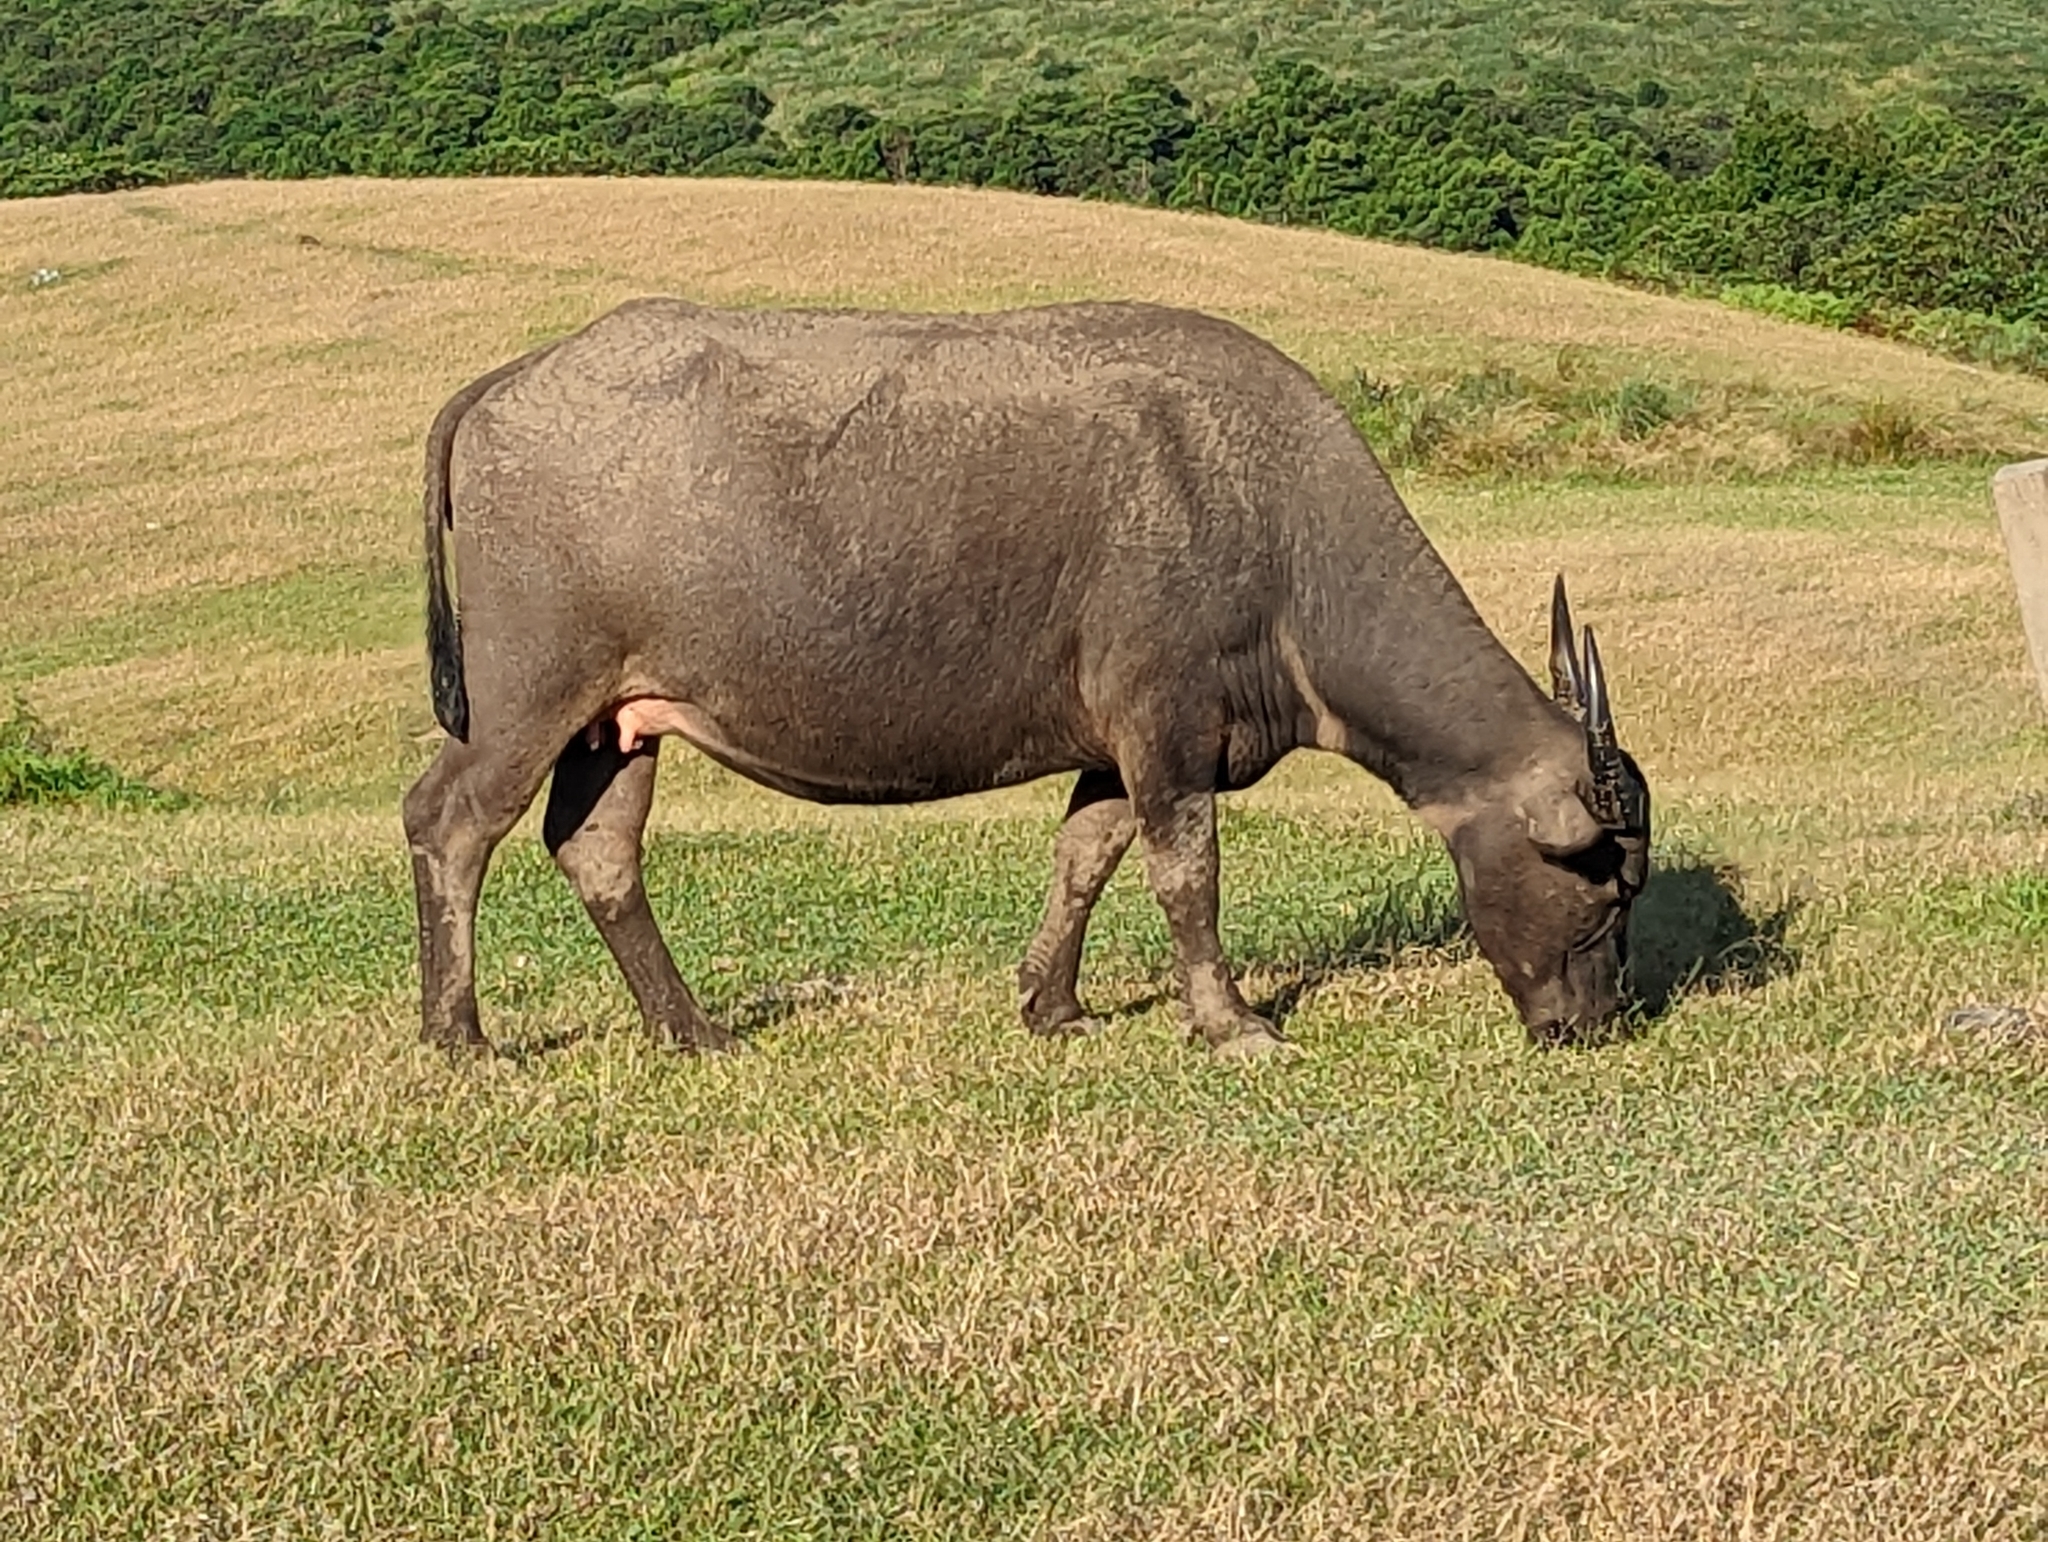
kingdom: Animalia
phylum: Chordata
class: Mammalia
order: Artiodactyla
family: Bovidae
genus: Bubalus
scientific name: Bubalus bubalis
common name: Water buffalo
